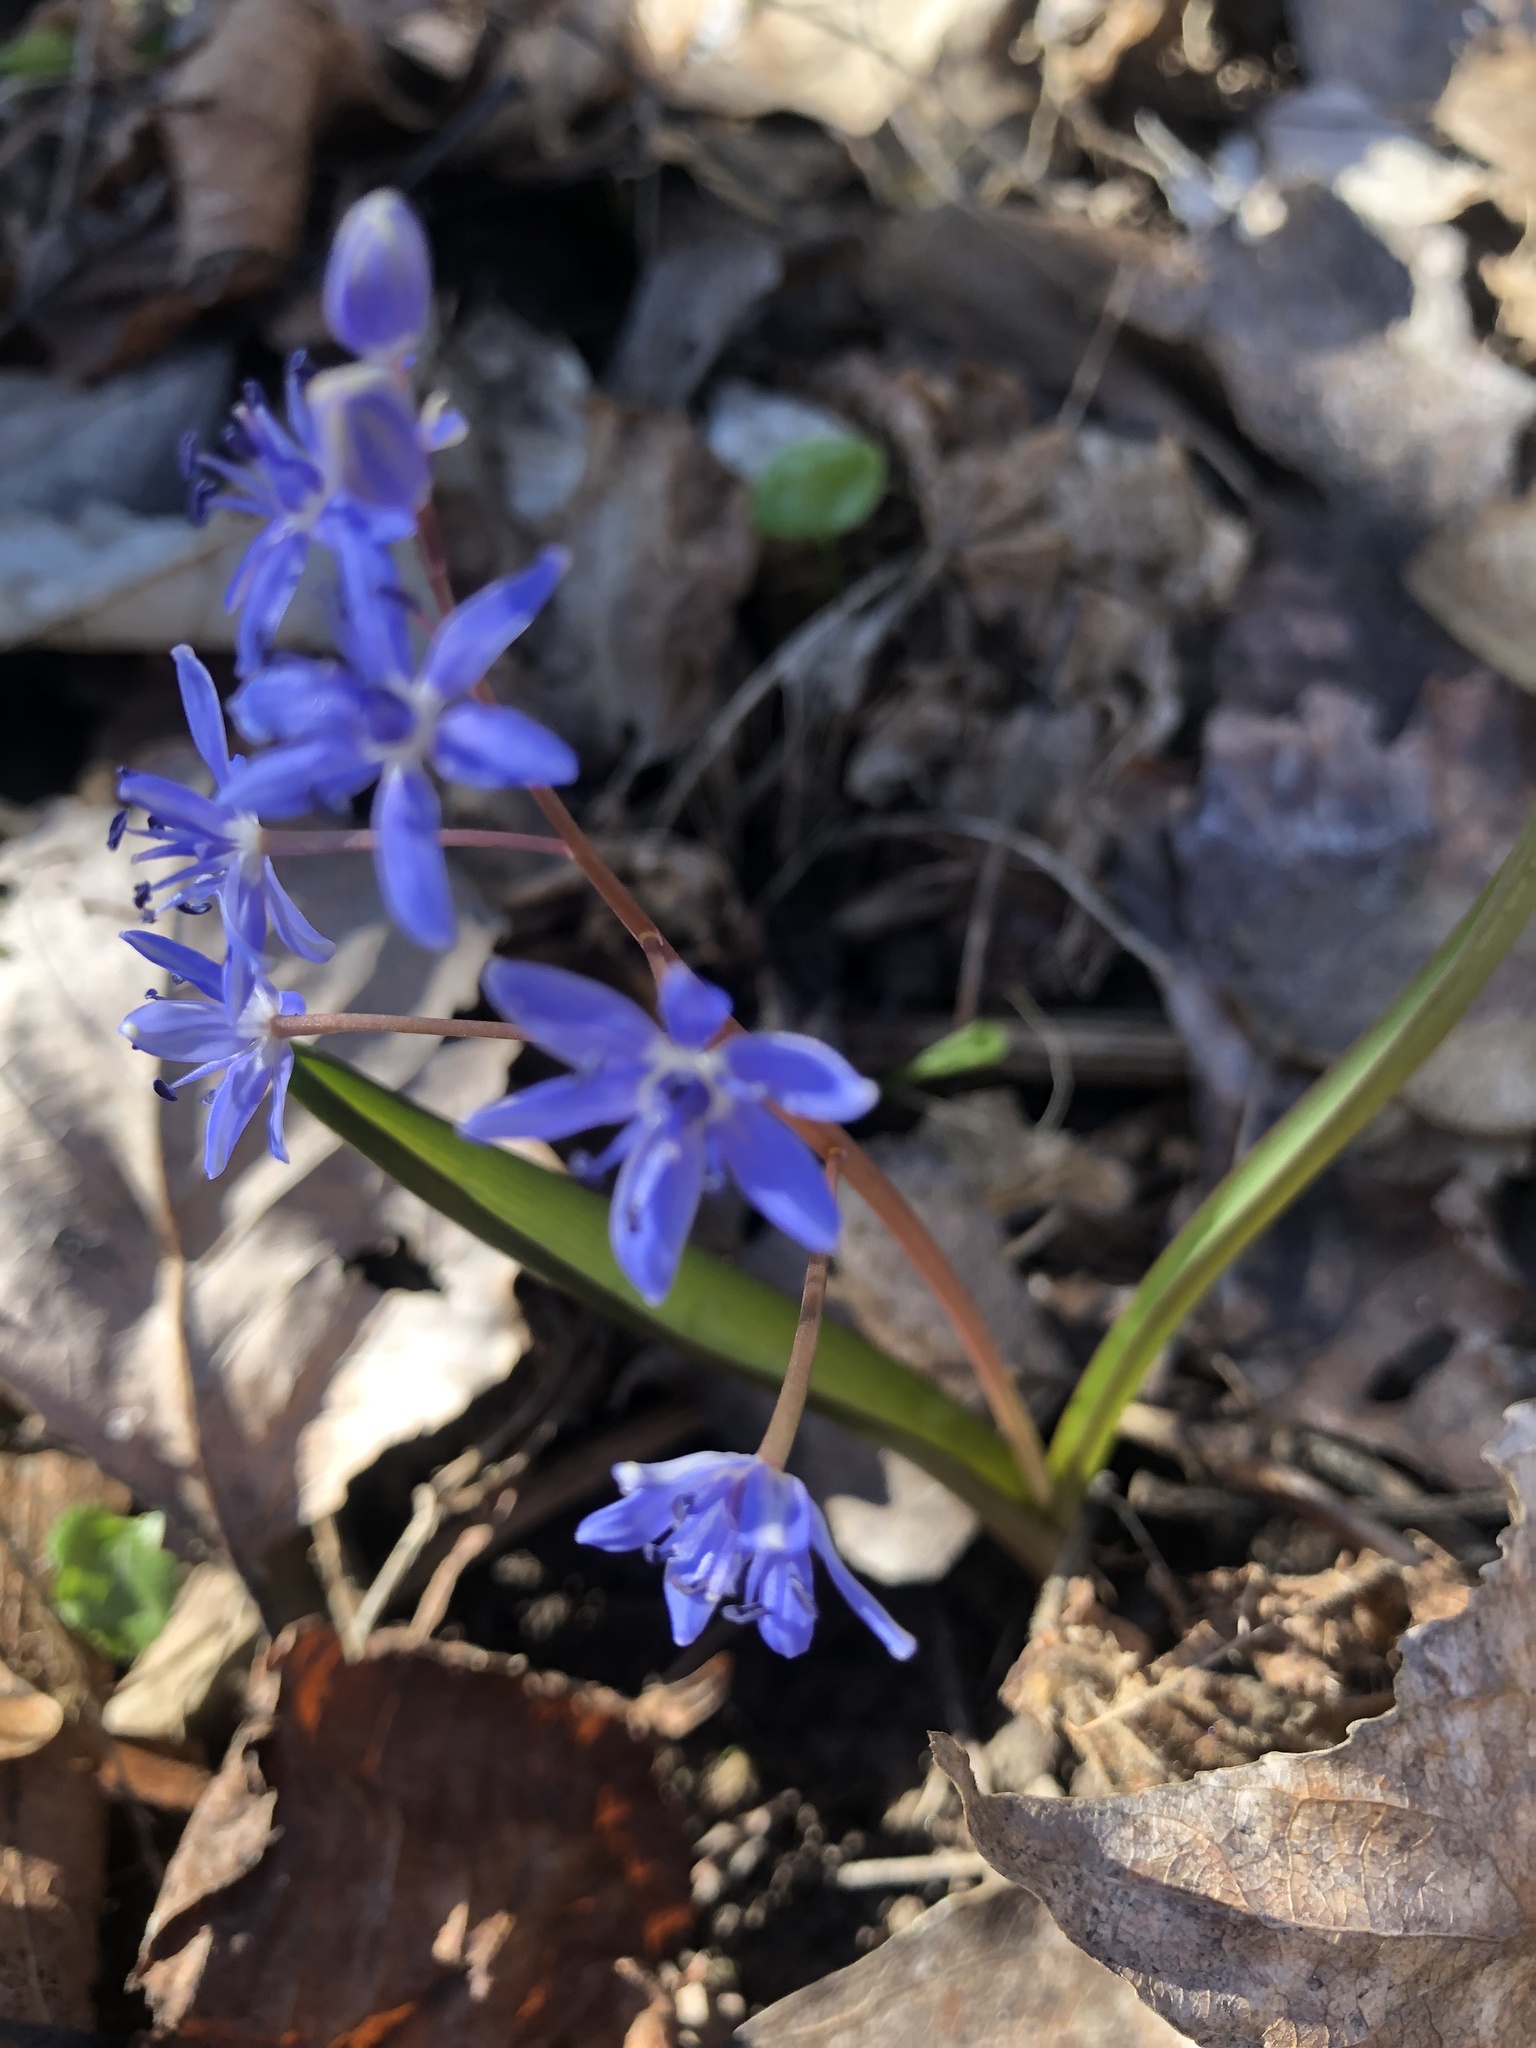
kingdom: Plantae
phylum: Tracheophyta
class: Liliopsida
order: Asparagales
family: Asparagaceae
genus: Scilla
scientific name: Scilla vindobonensis
